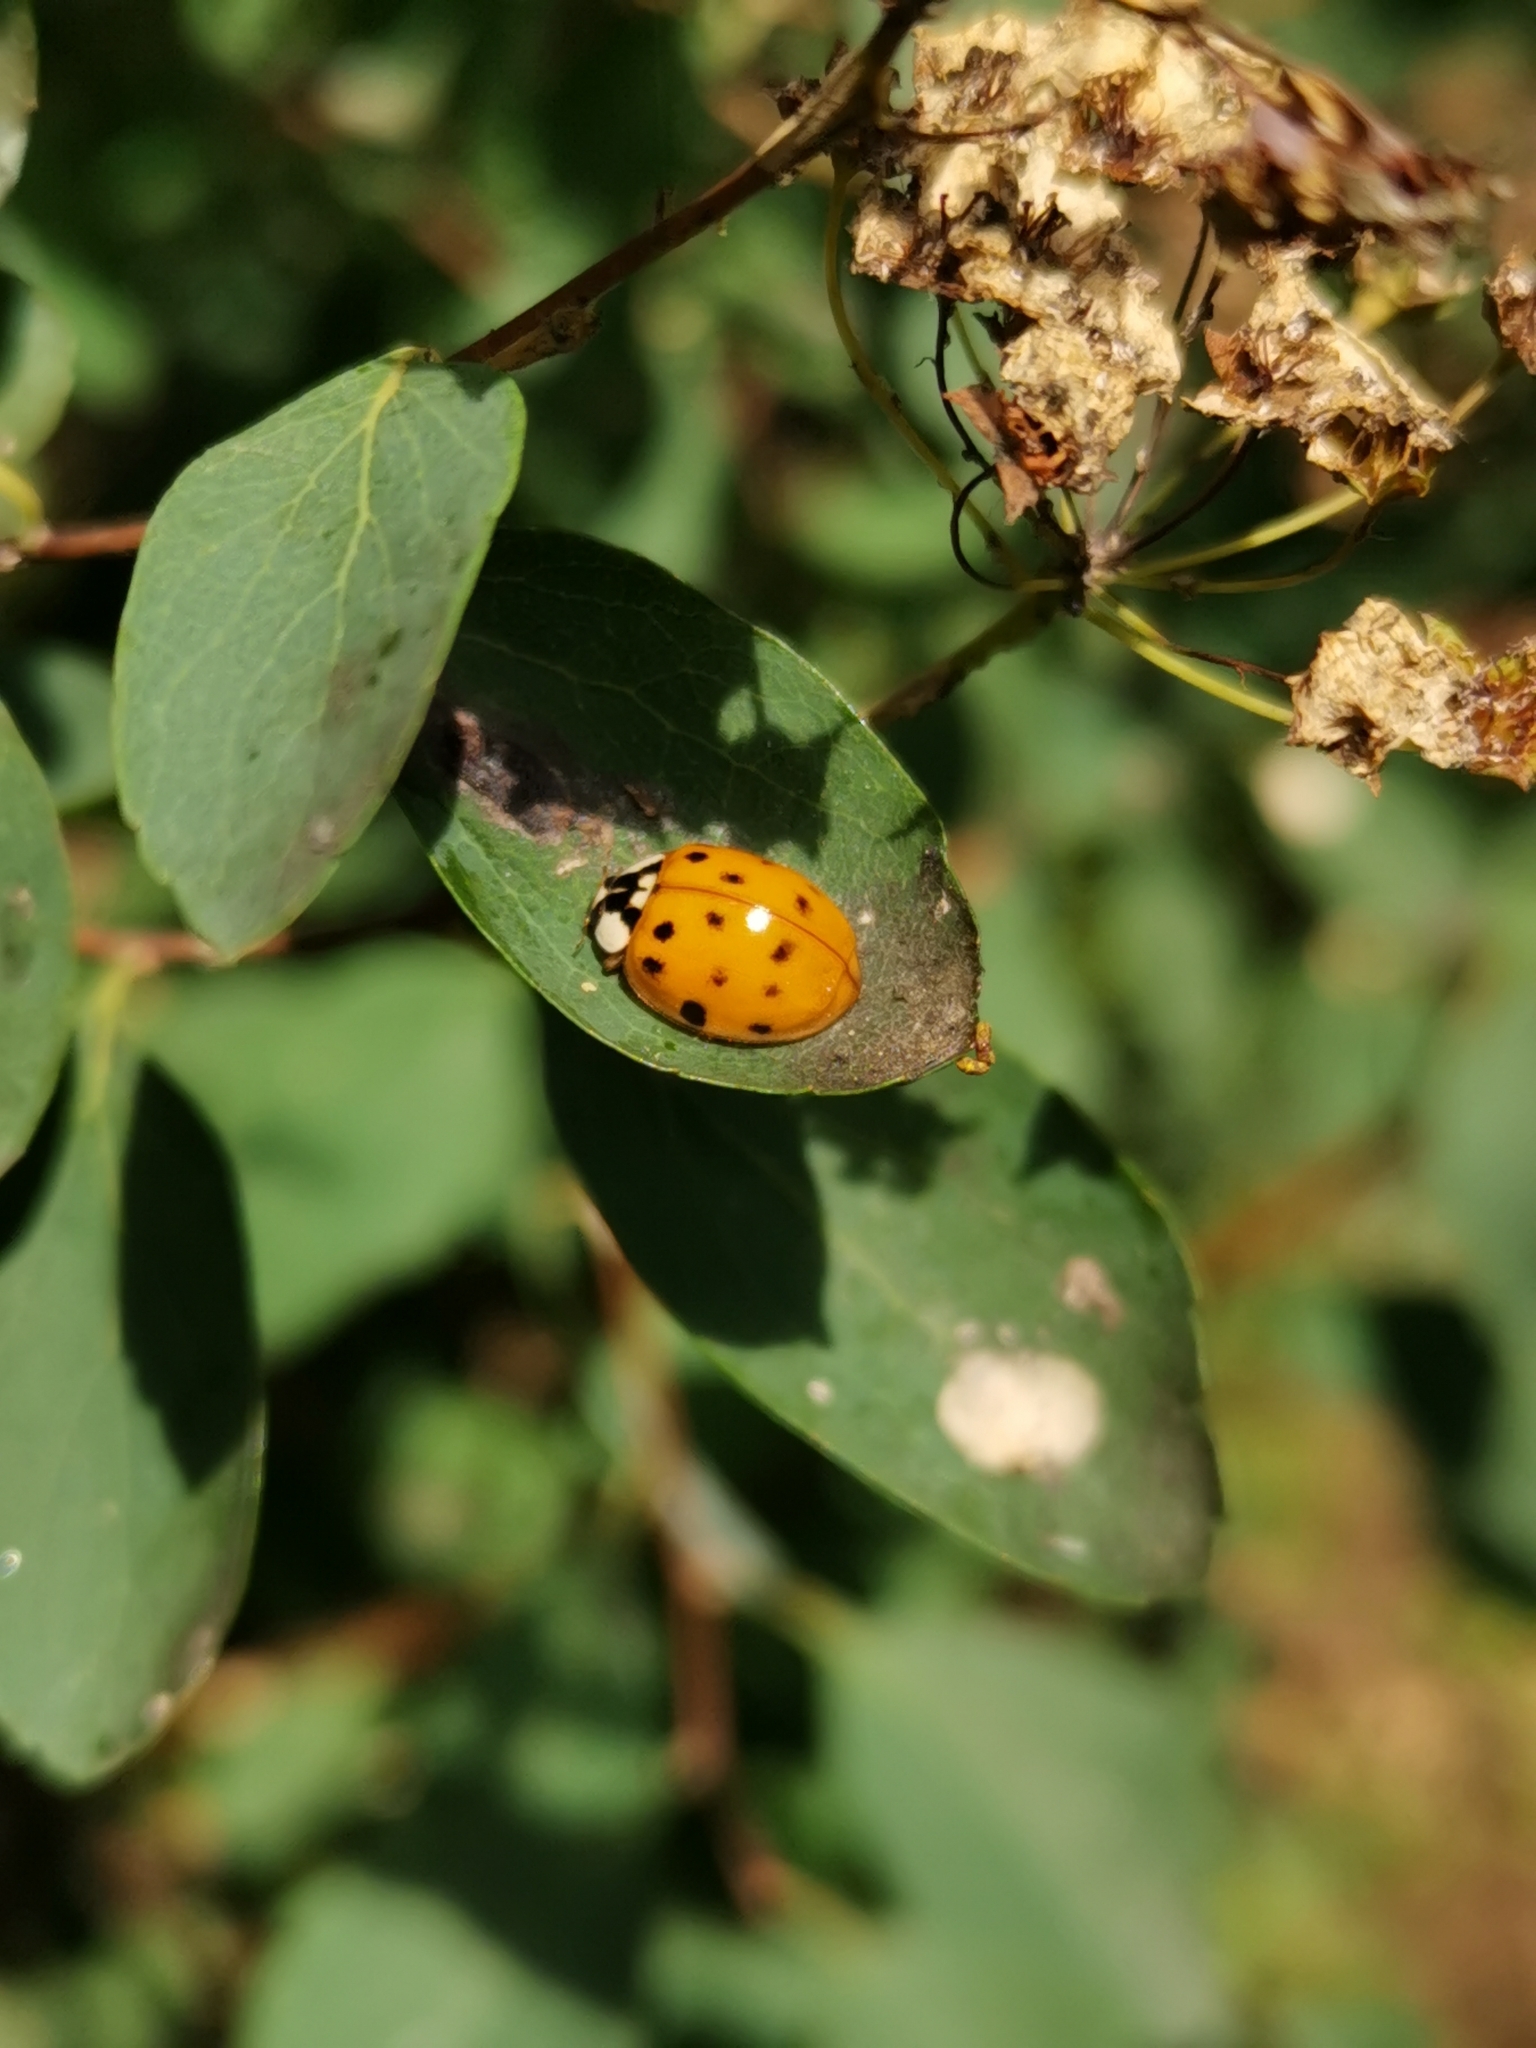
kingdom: Animalia
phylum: Arthropoda
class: Insecta
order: Coleoptera
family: Coccinellidae
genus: Harmonia
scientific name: Harmonia axyridis
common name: Harlequin ladybird
